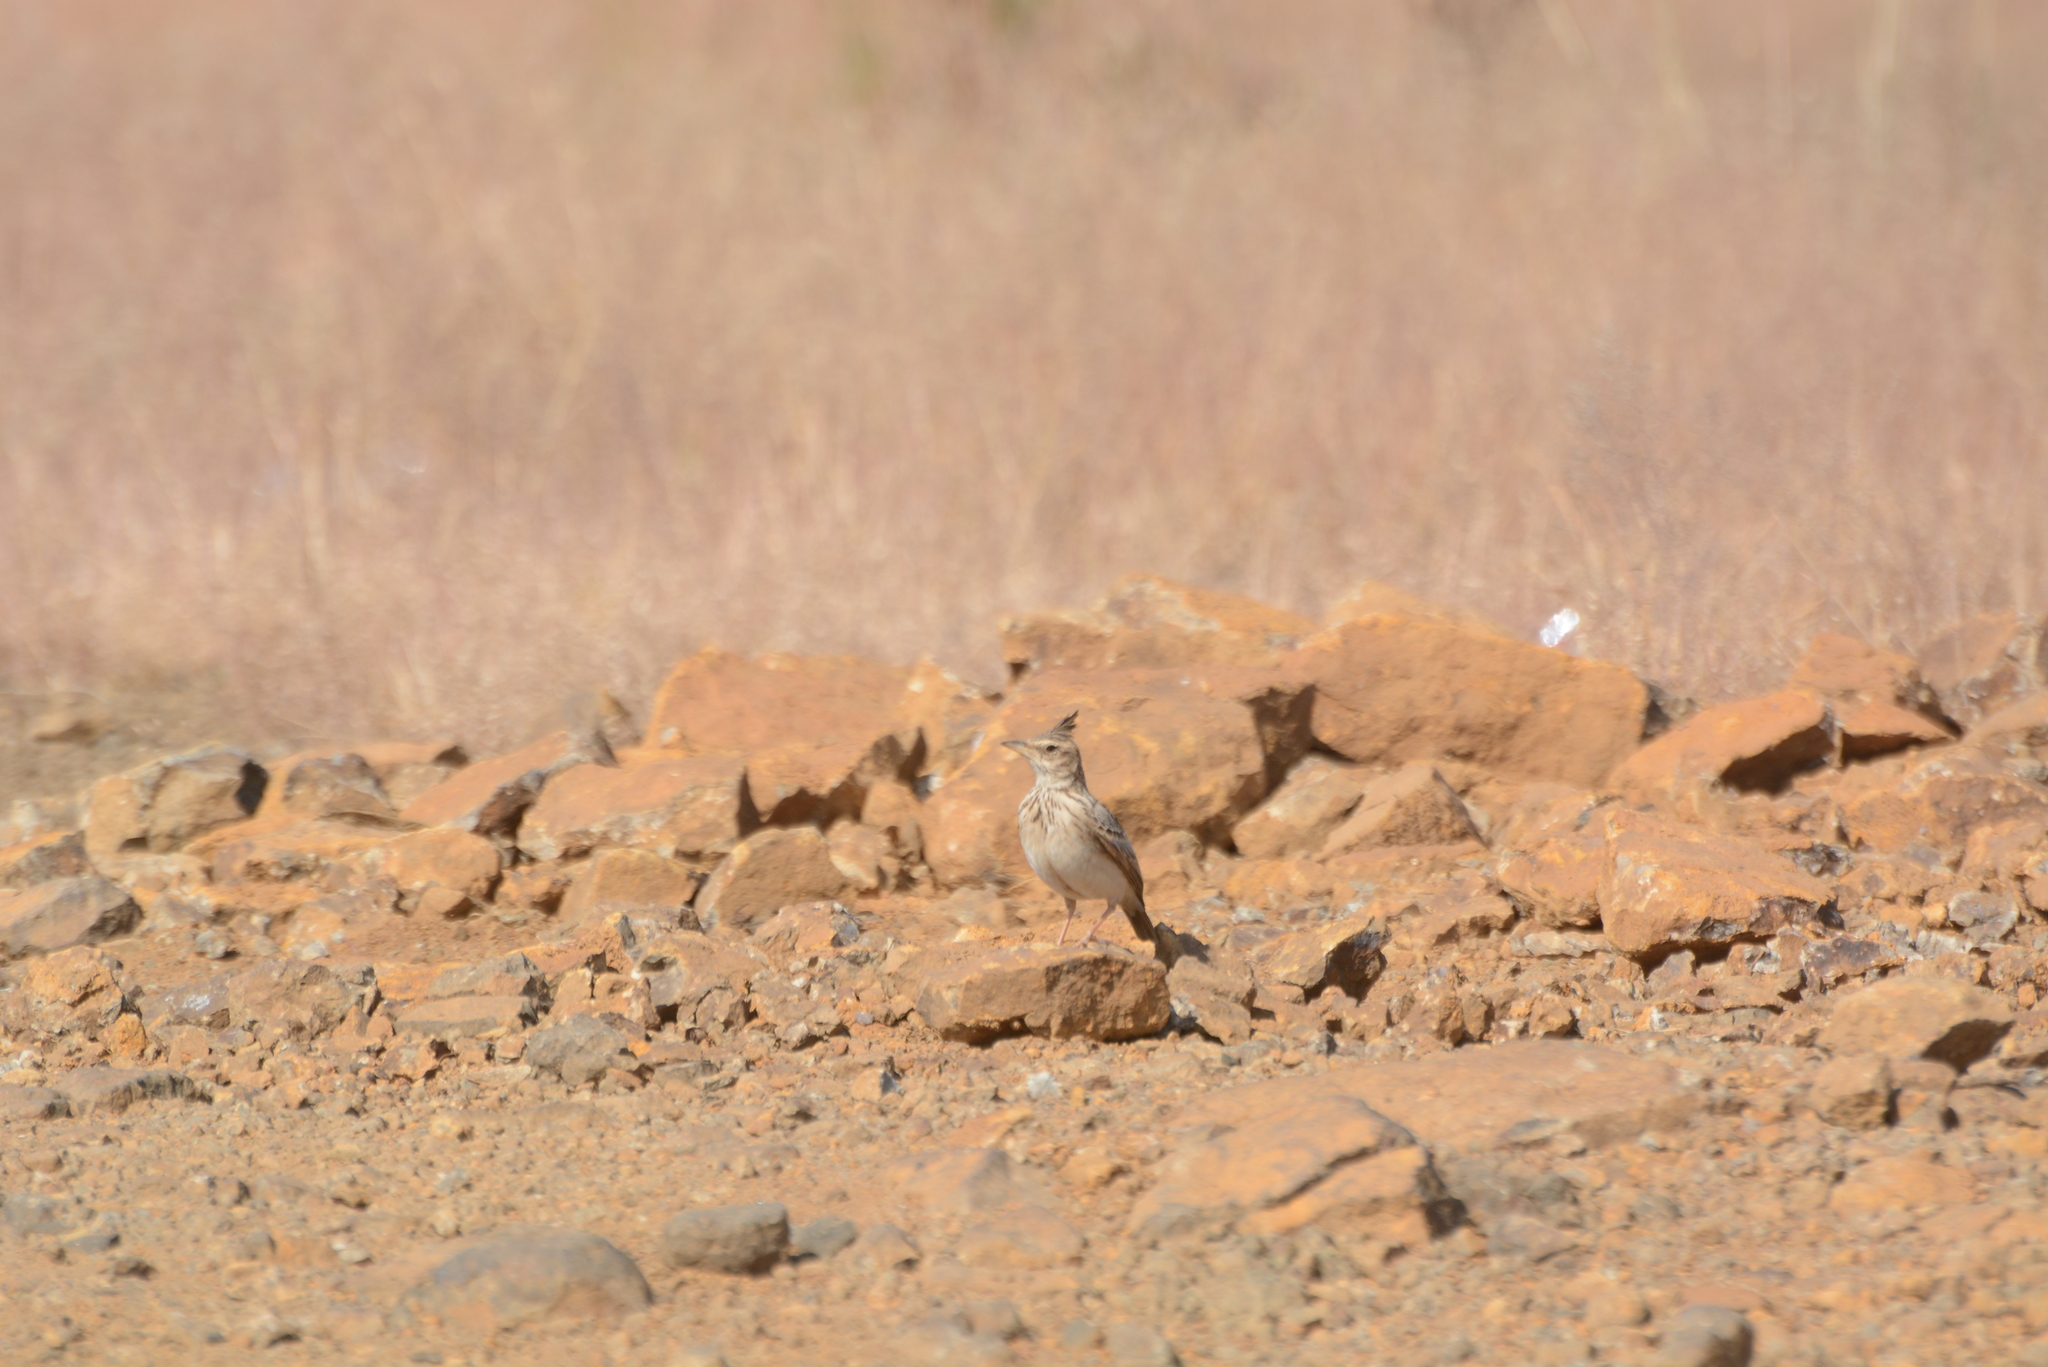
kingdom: Animalia
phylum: Chordata
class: Aves
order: Passeriformes
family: Alaudidae
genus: Galerida
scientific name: Galerida malabarica
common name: Malabar lark
